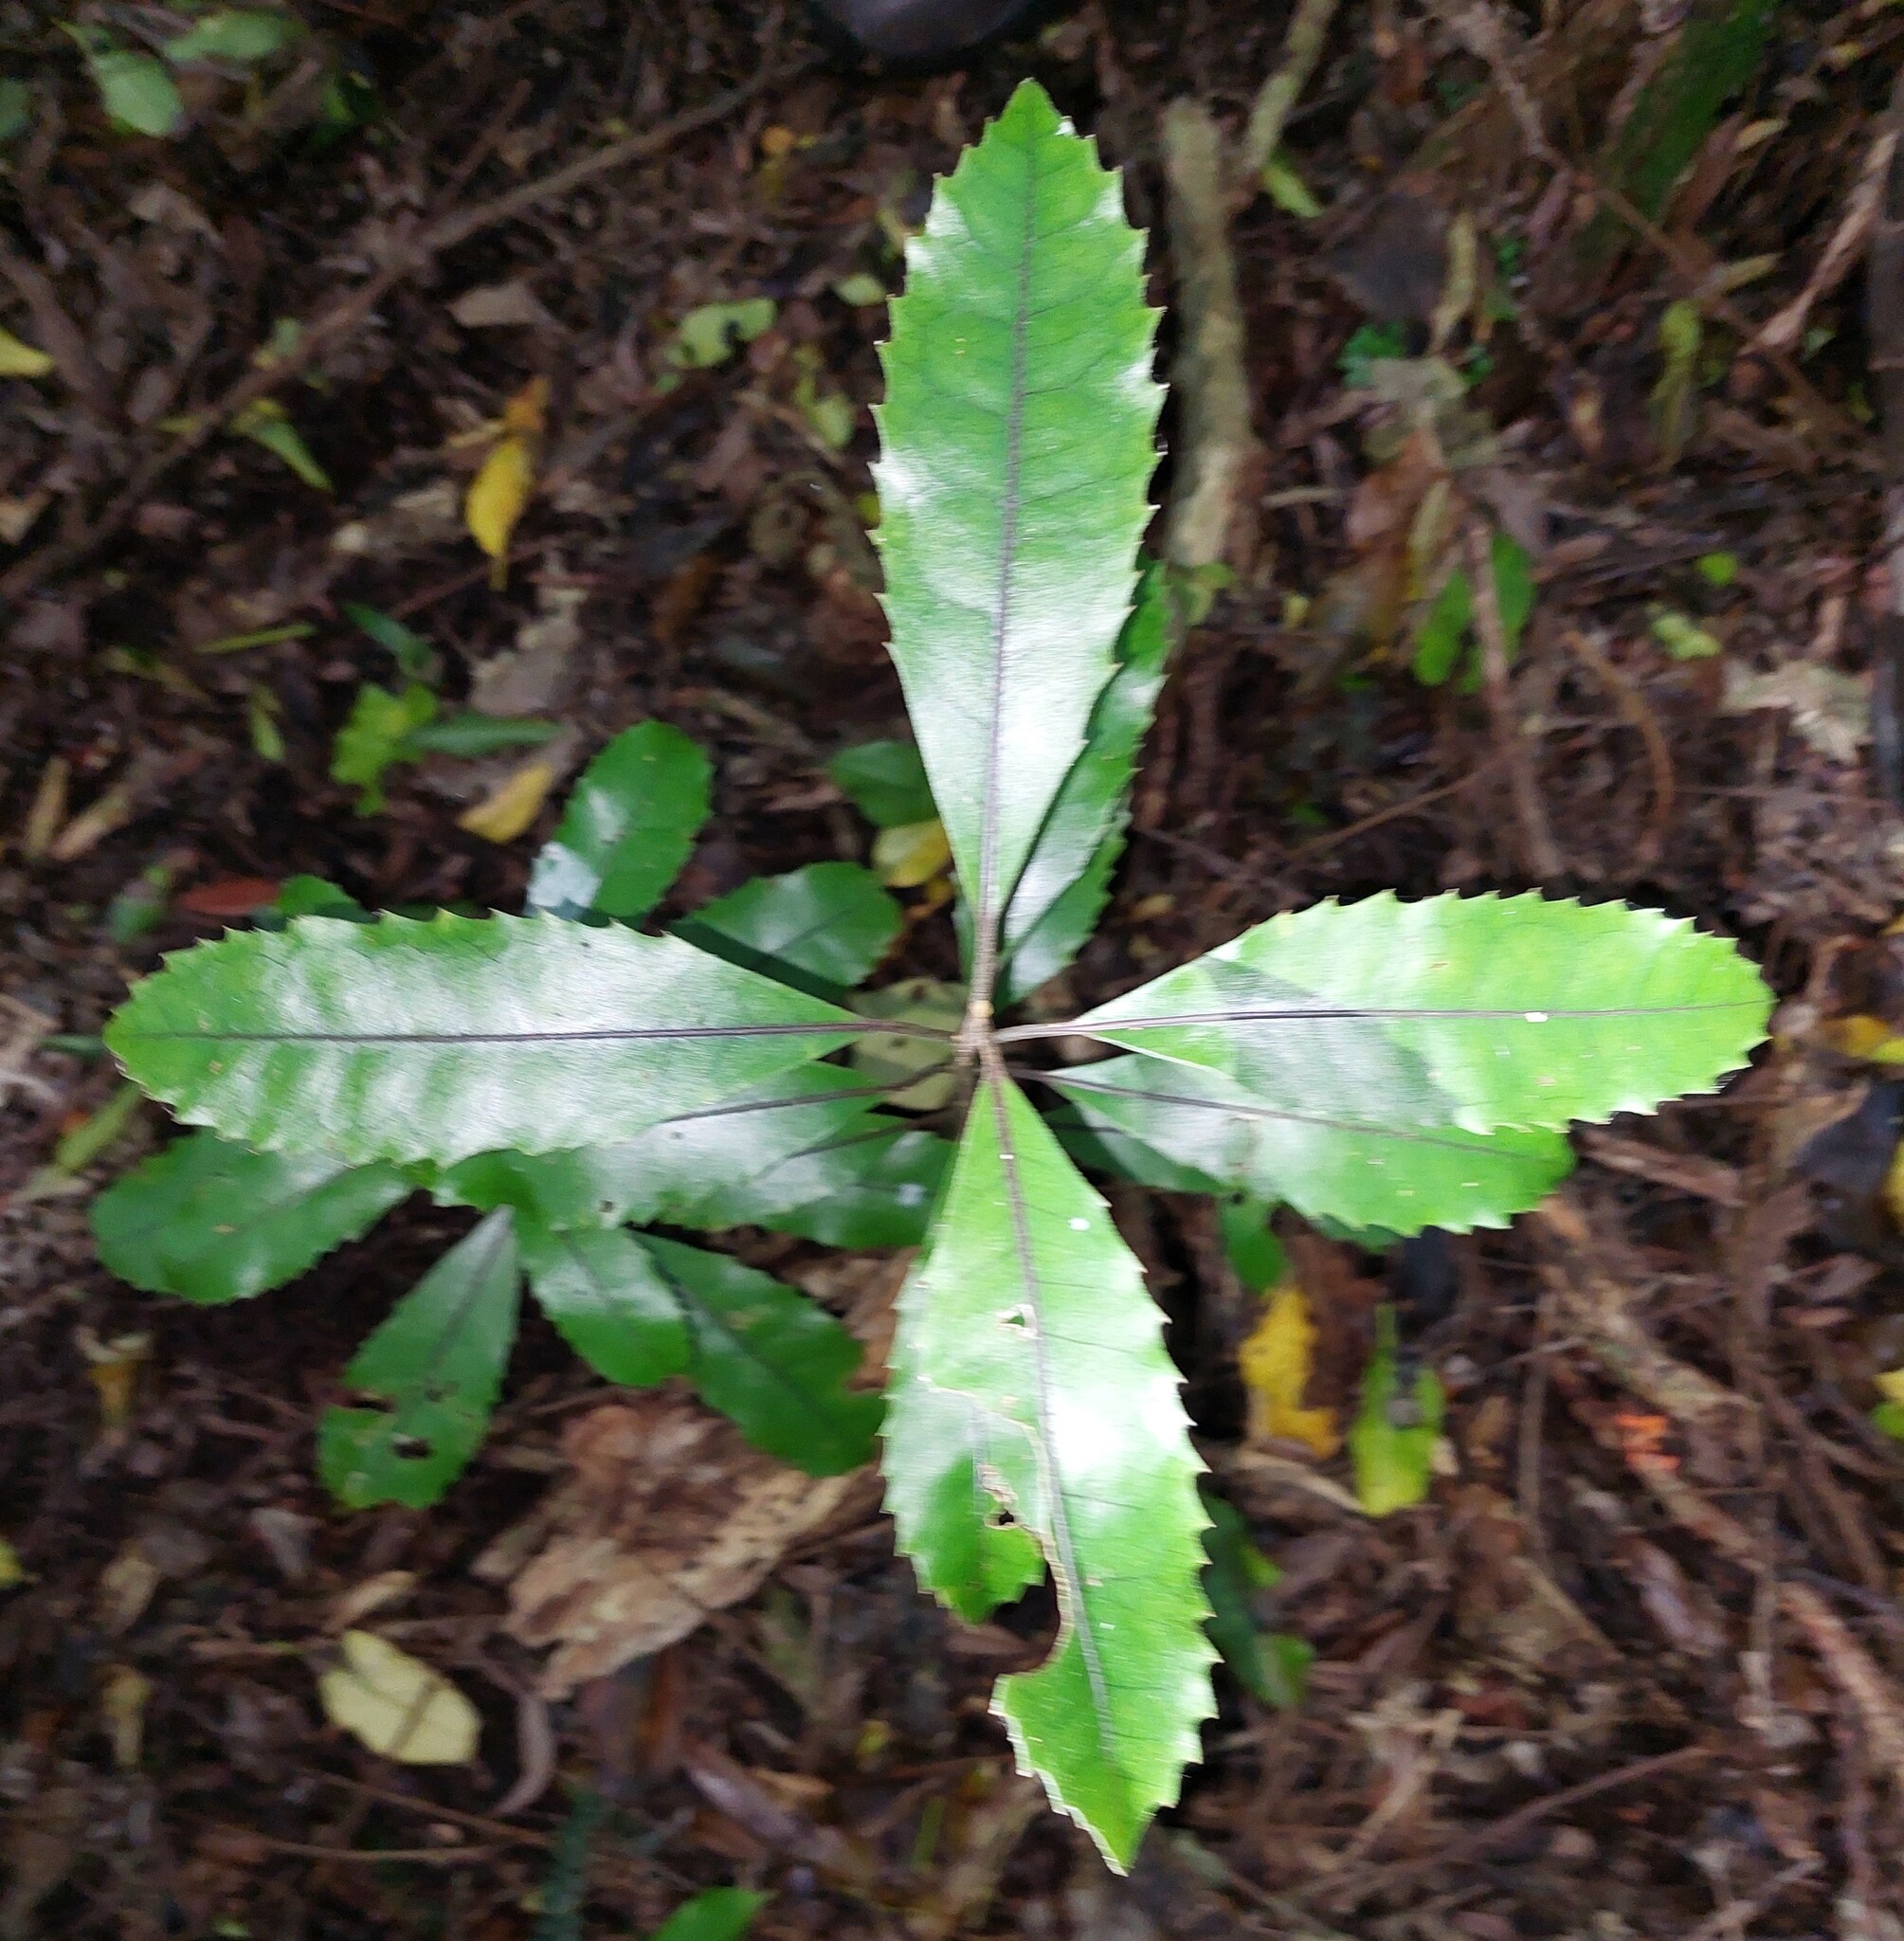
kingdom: Plantae
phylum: Tracheophyta
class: Magnoliopsida
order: Laurales
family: Monimiaceae
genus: Hedycarya
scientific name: Hedycarya arborea
